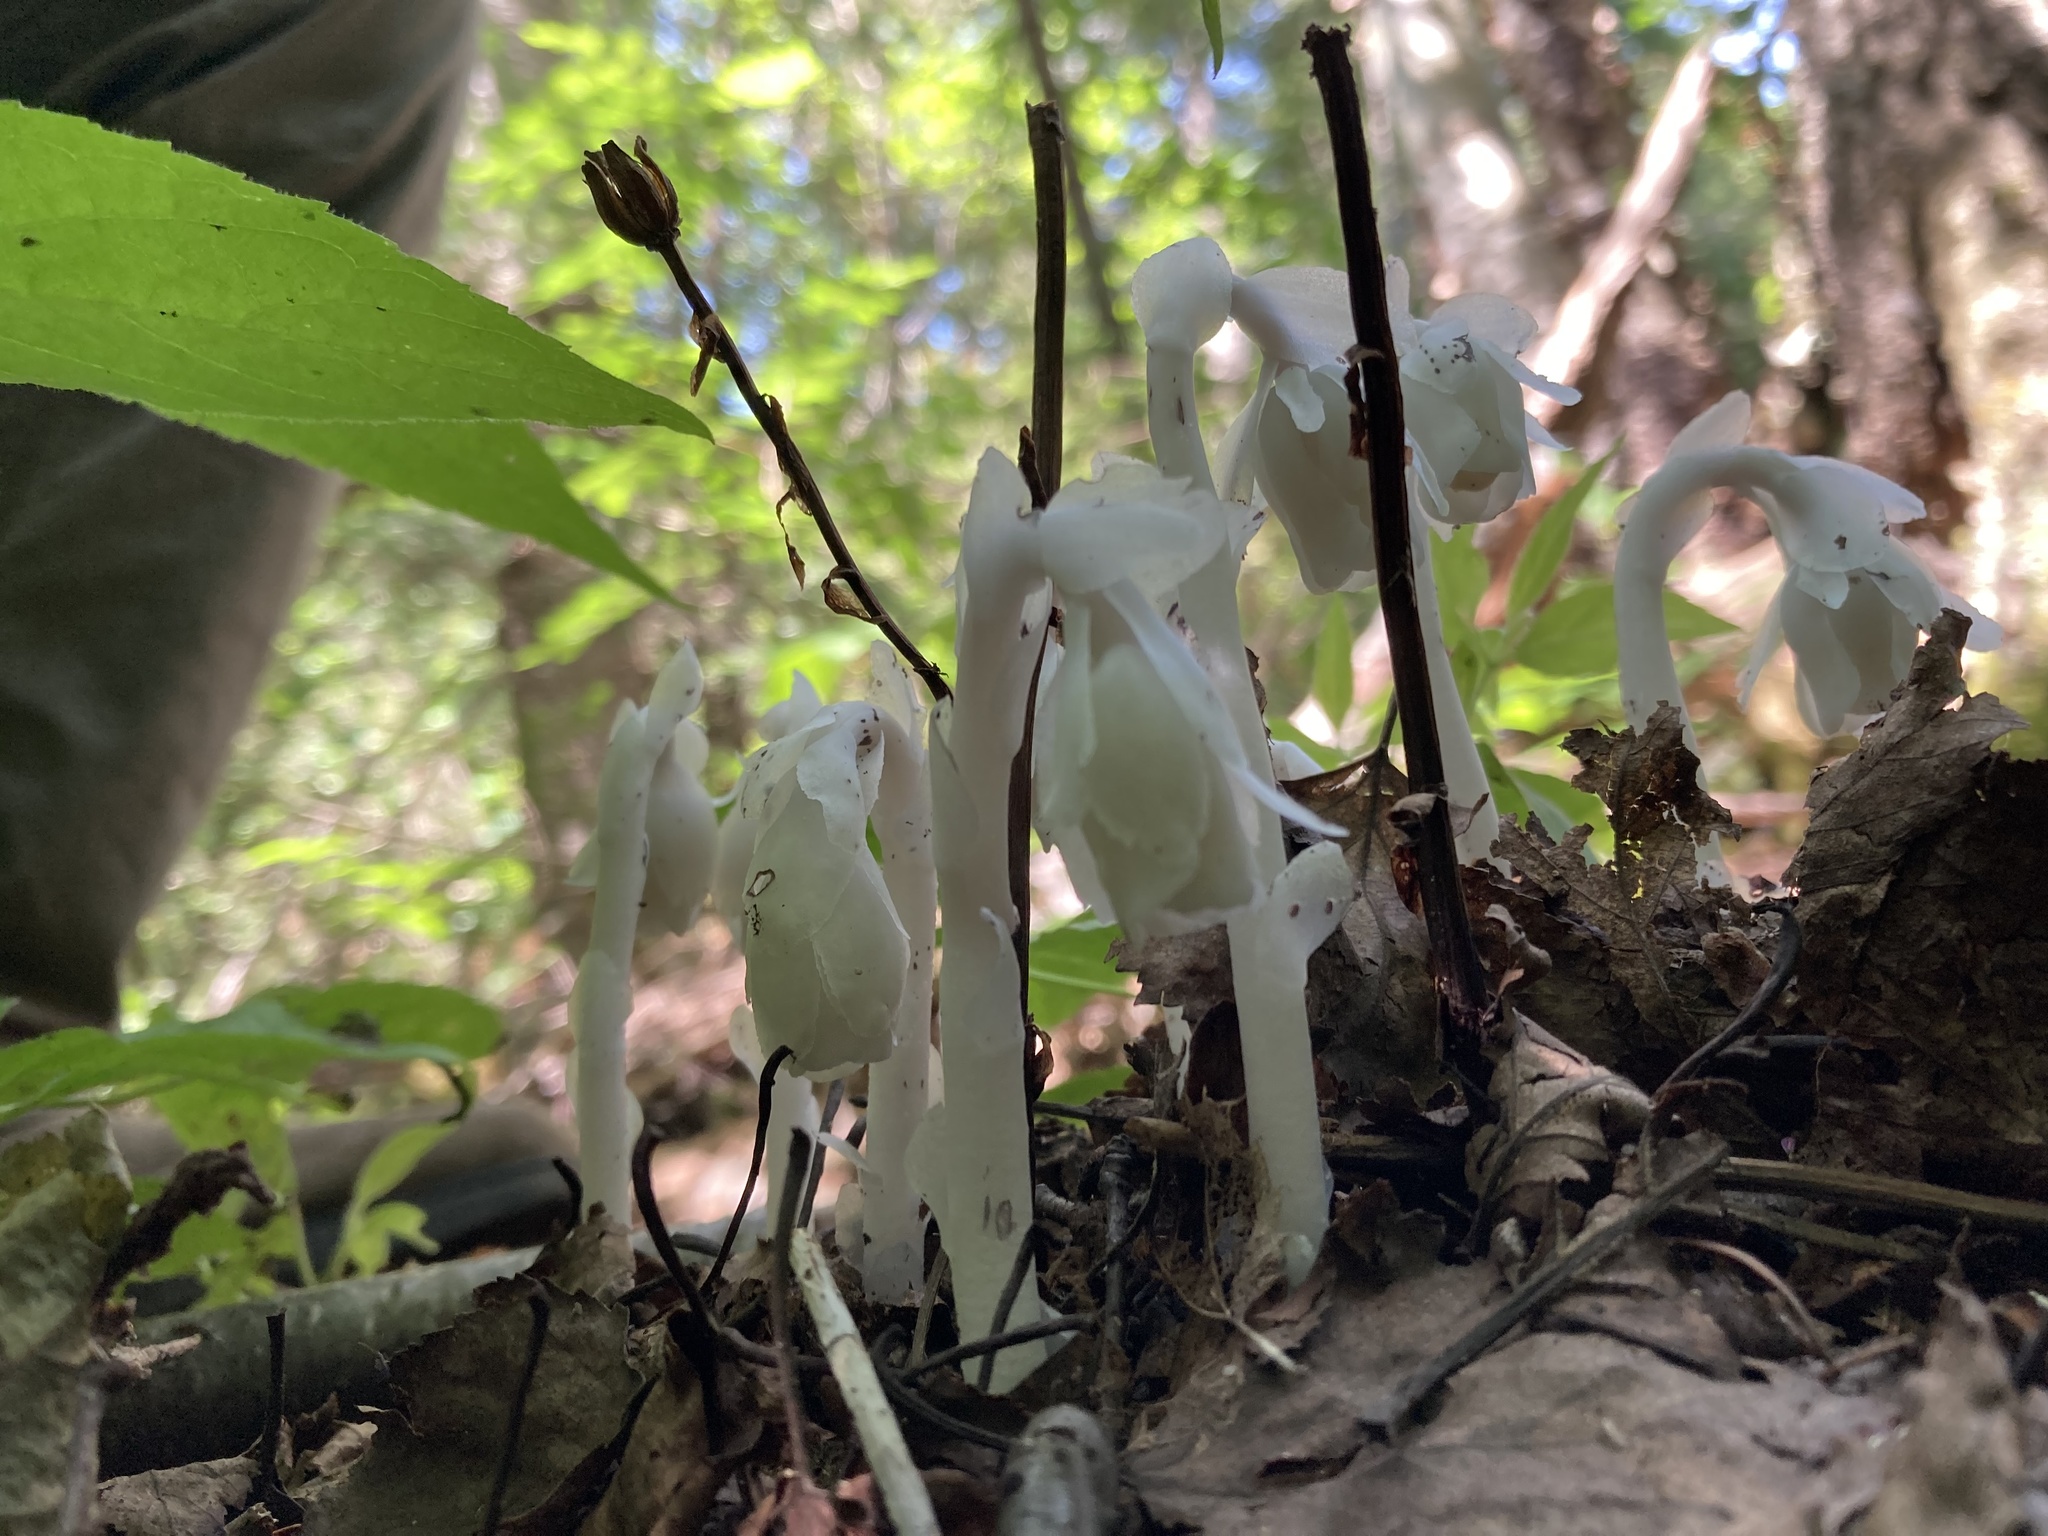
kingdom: Plantae
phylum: Tracheophyta
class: Magnoliopsida
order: Ericales
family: Ericaceae
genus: Monotropa
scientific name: Monotropa uniflora
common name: Convulsion root
